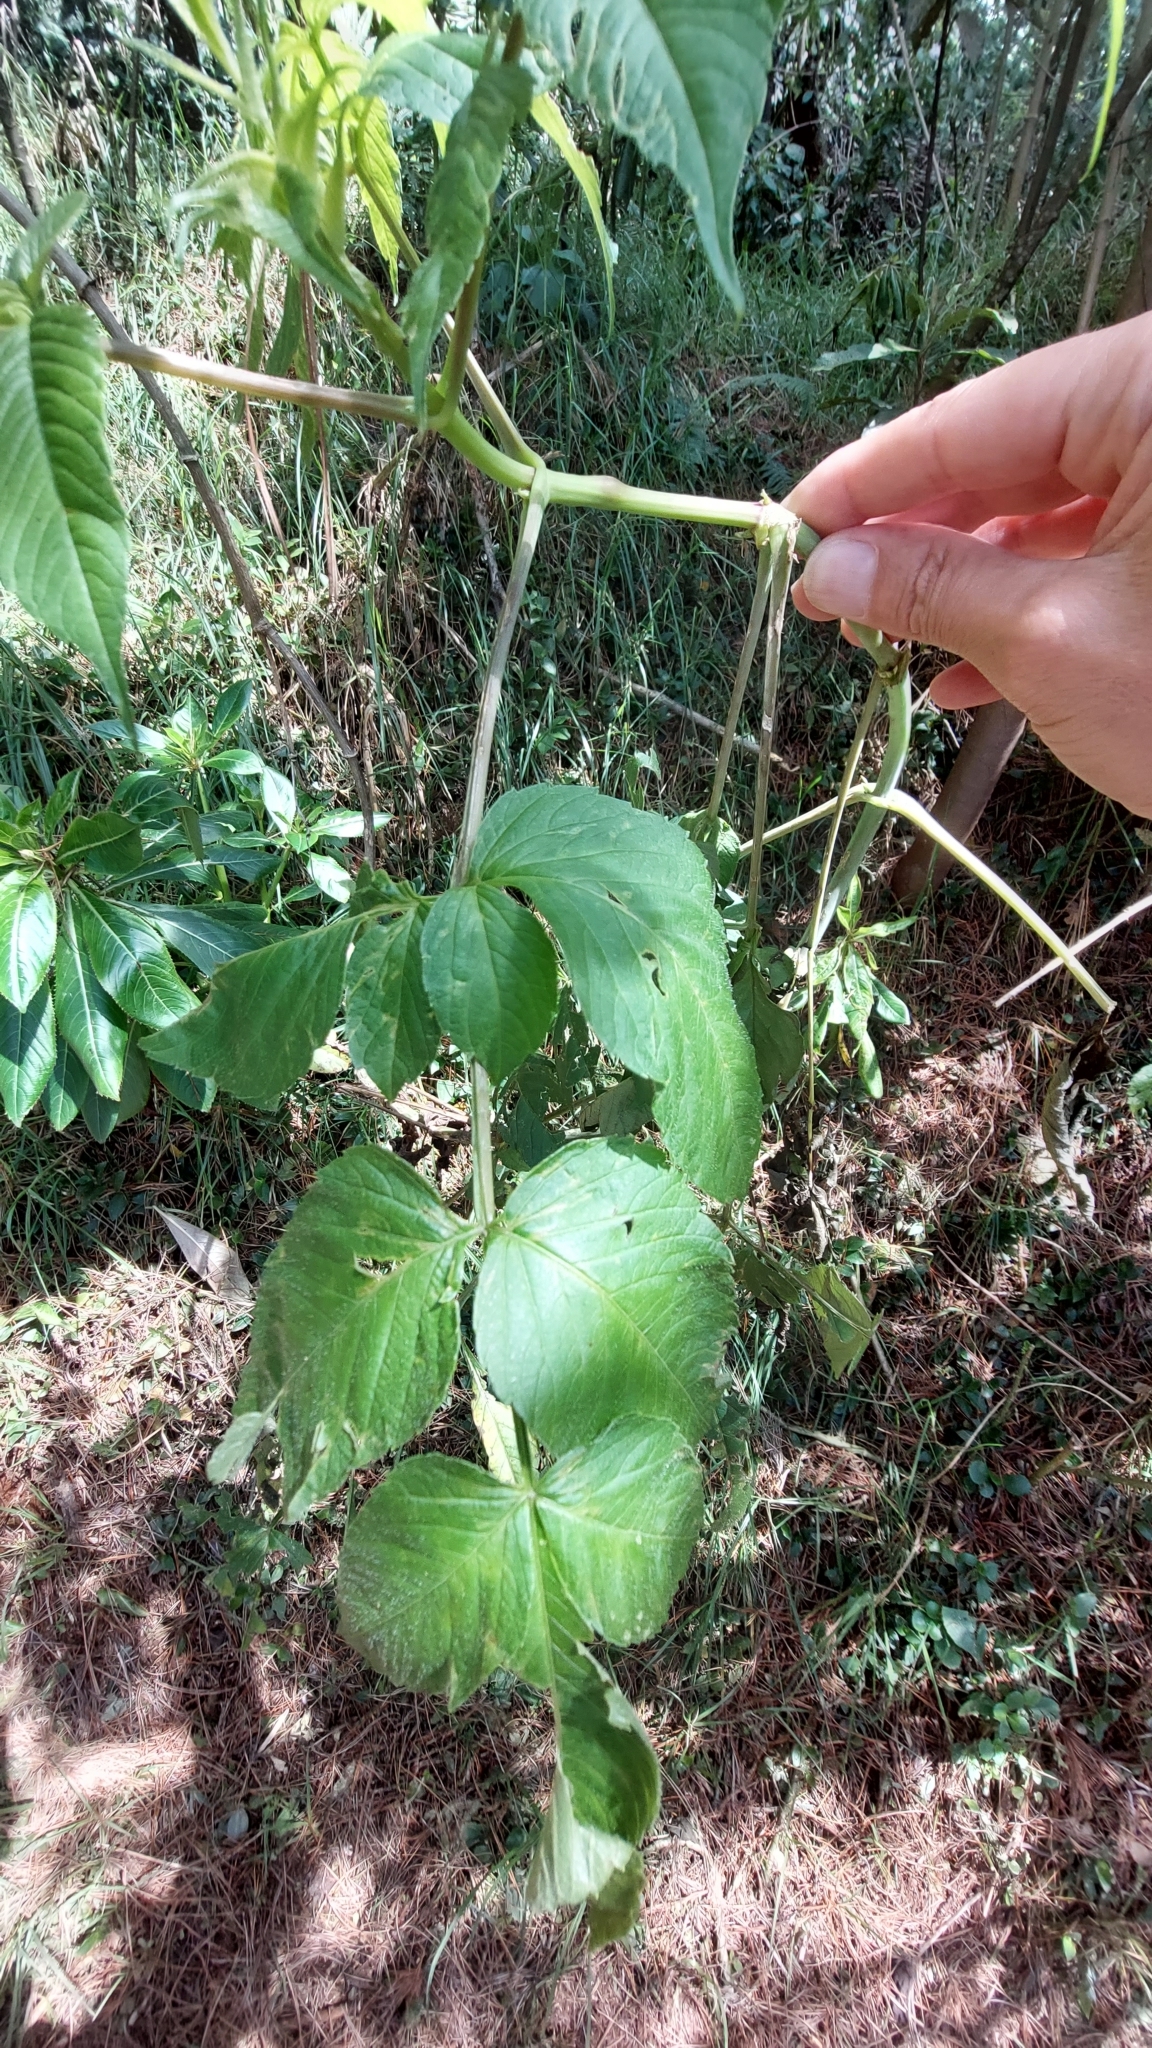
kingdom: Plantae
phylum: Tracheophyta
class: Magnoliopsida
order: Asterales
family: Asteraceae
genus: Dahlia
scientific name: Dahlia imperialis
